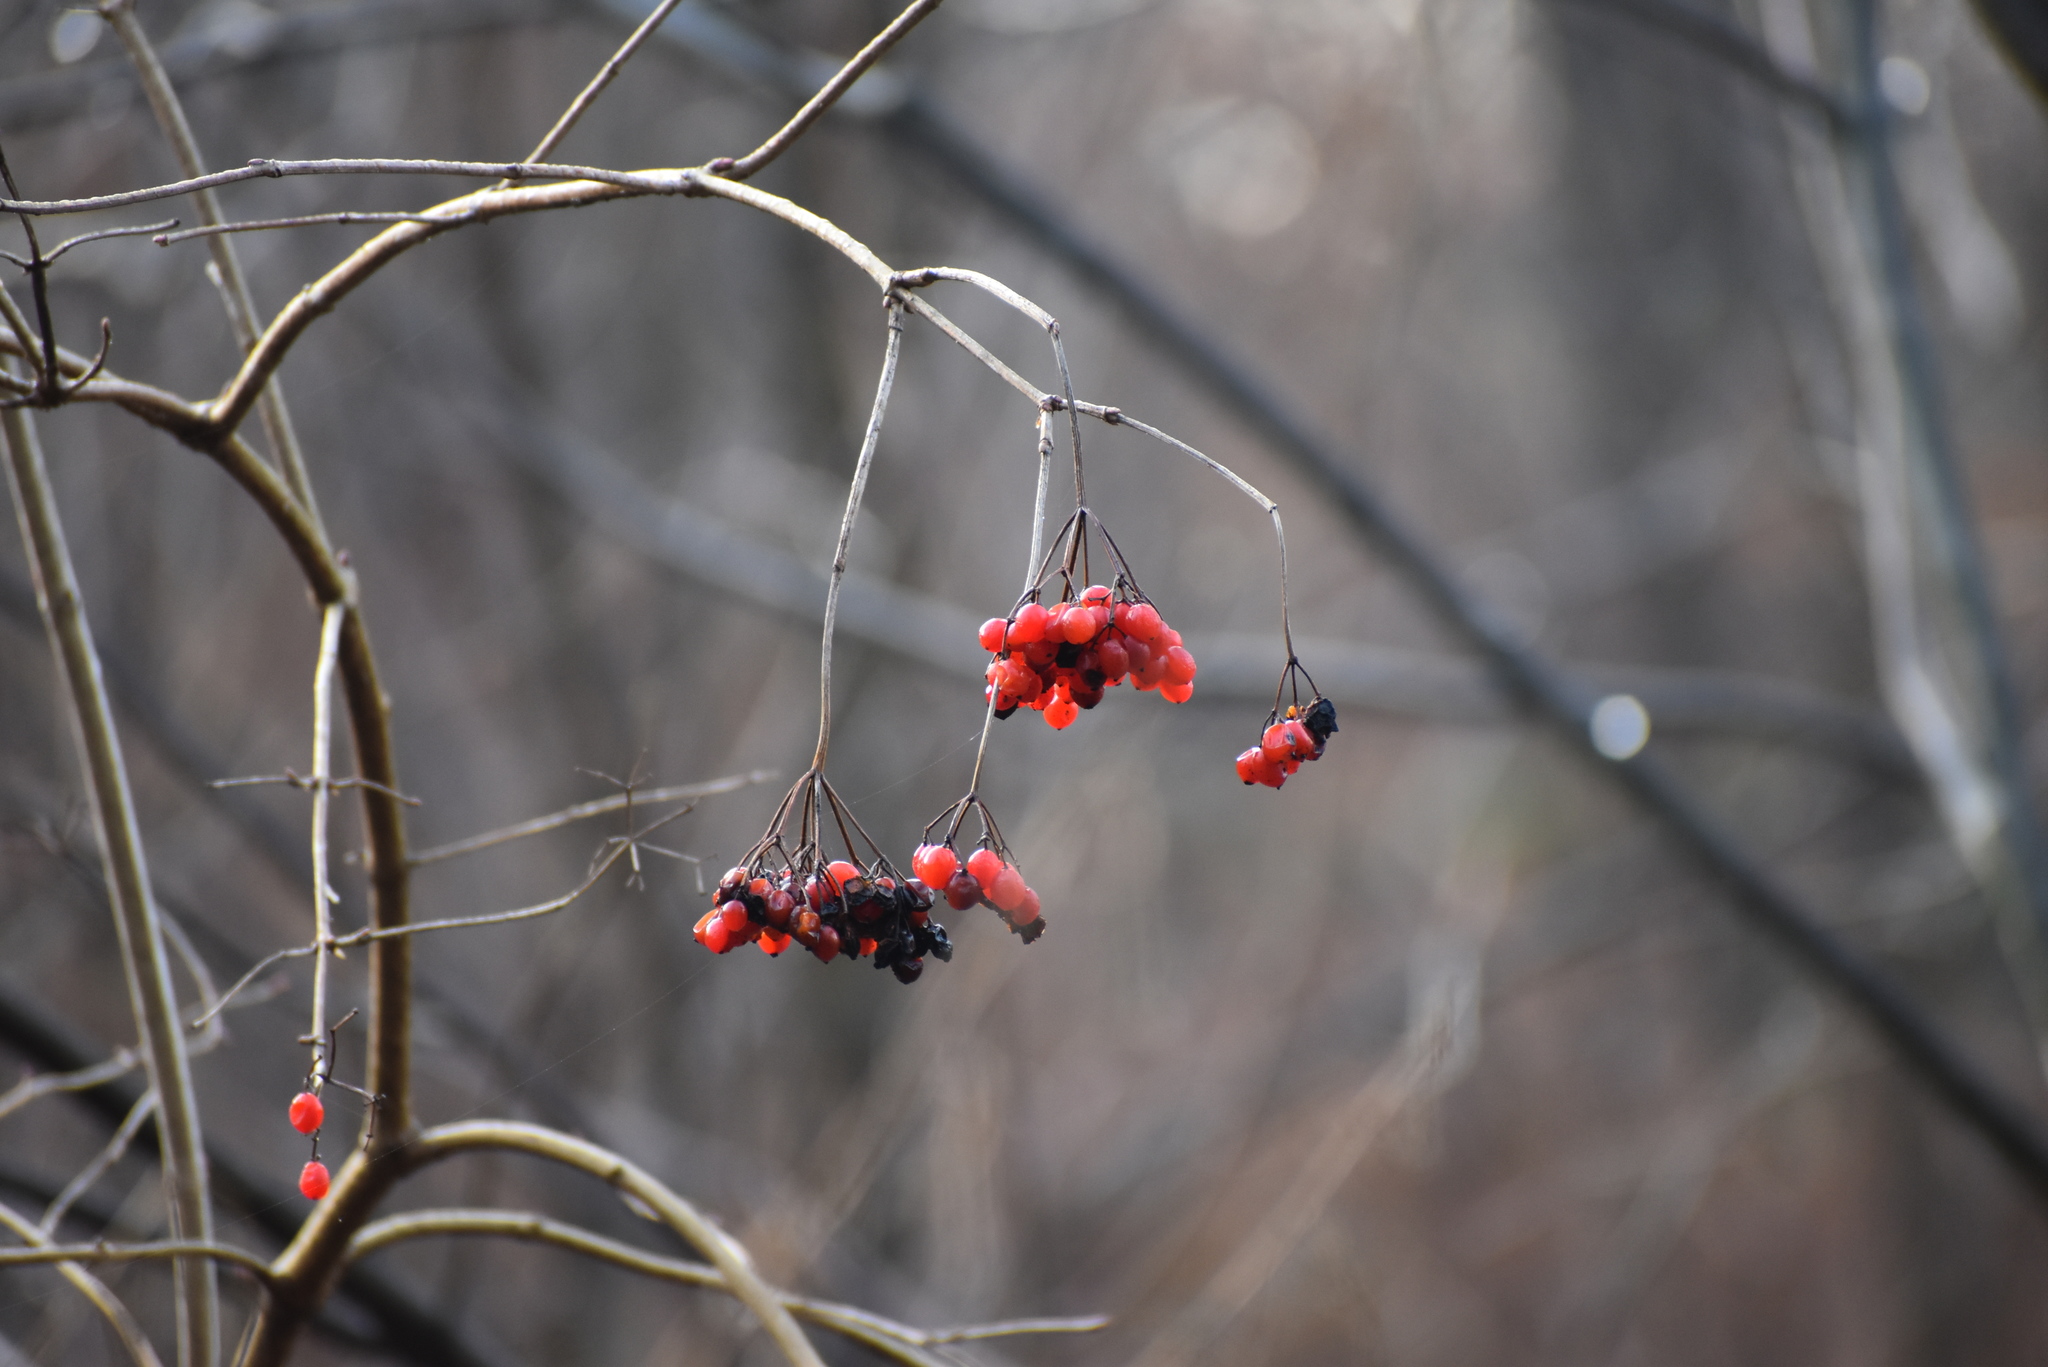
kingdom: Plantae
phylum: Tracheophyta
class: Magnoliopsida
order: Dipsacales
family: Viburnaceae
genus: Viburnum
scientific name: Viburnum opulus
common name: Guelder-rose
